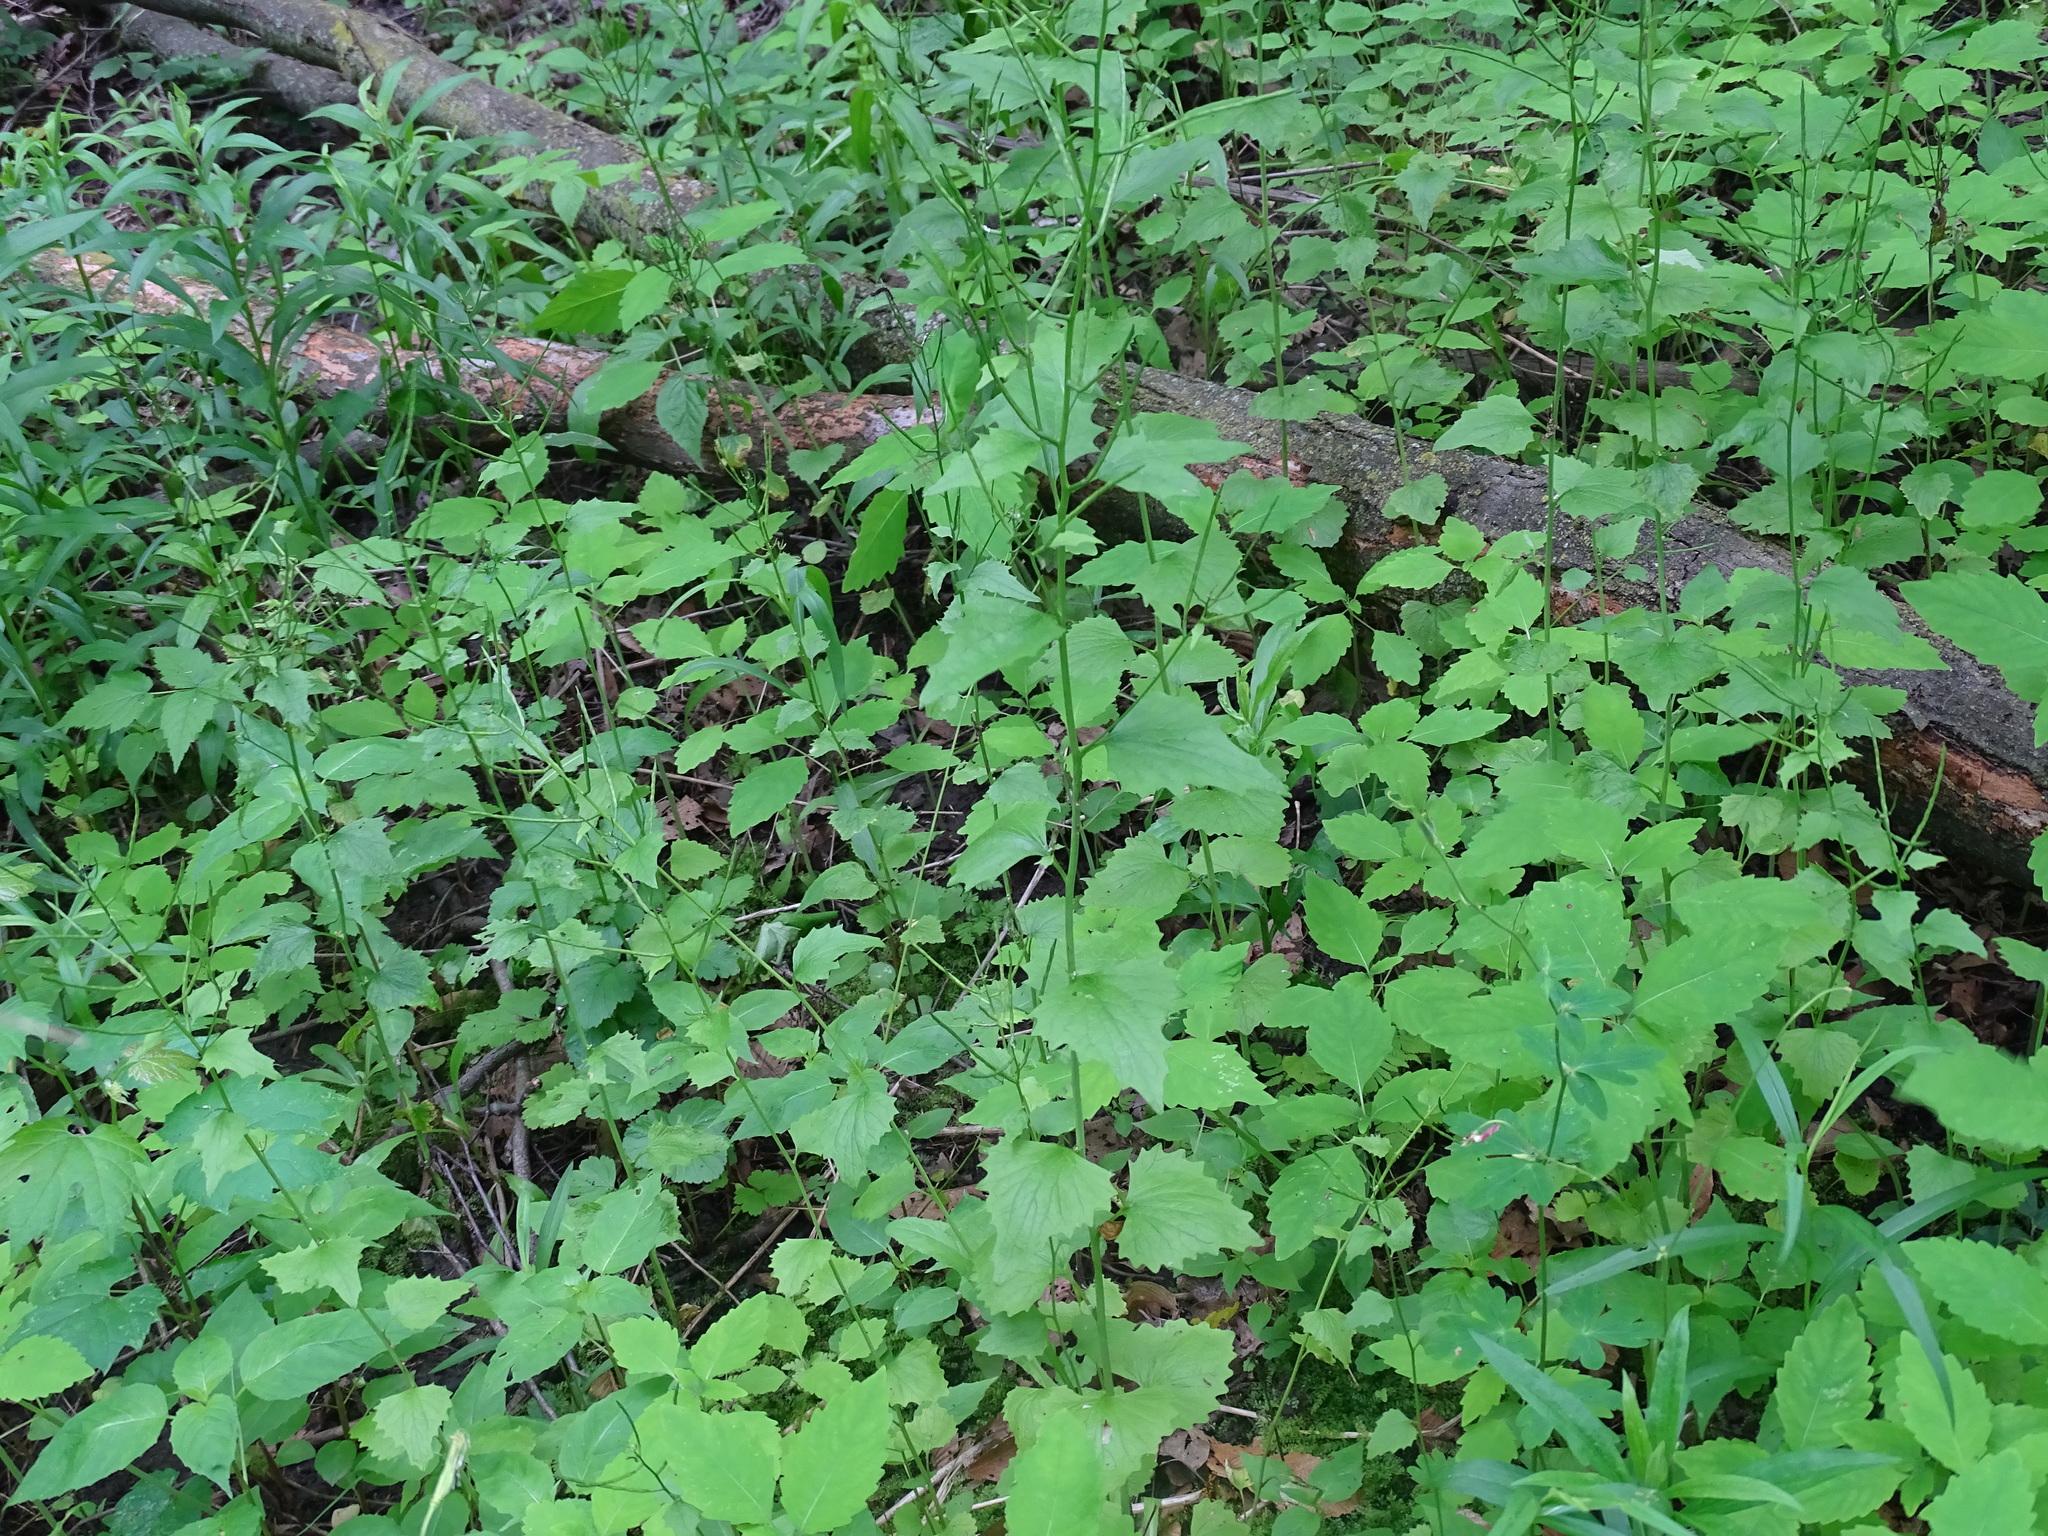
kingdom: Plantae
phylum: Tracheophyta
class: Magnoliopsida
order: Brassicales
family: Brassicaceae
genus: Alliaria
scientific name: Alliaria petiolata
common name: Garlic mustard
